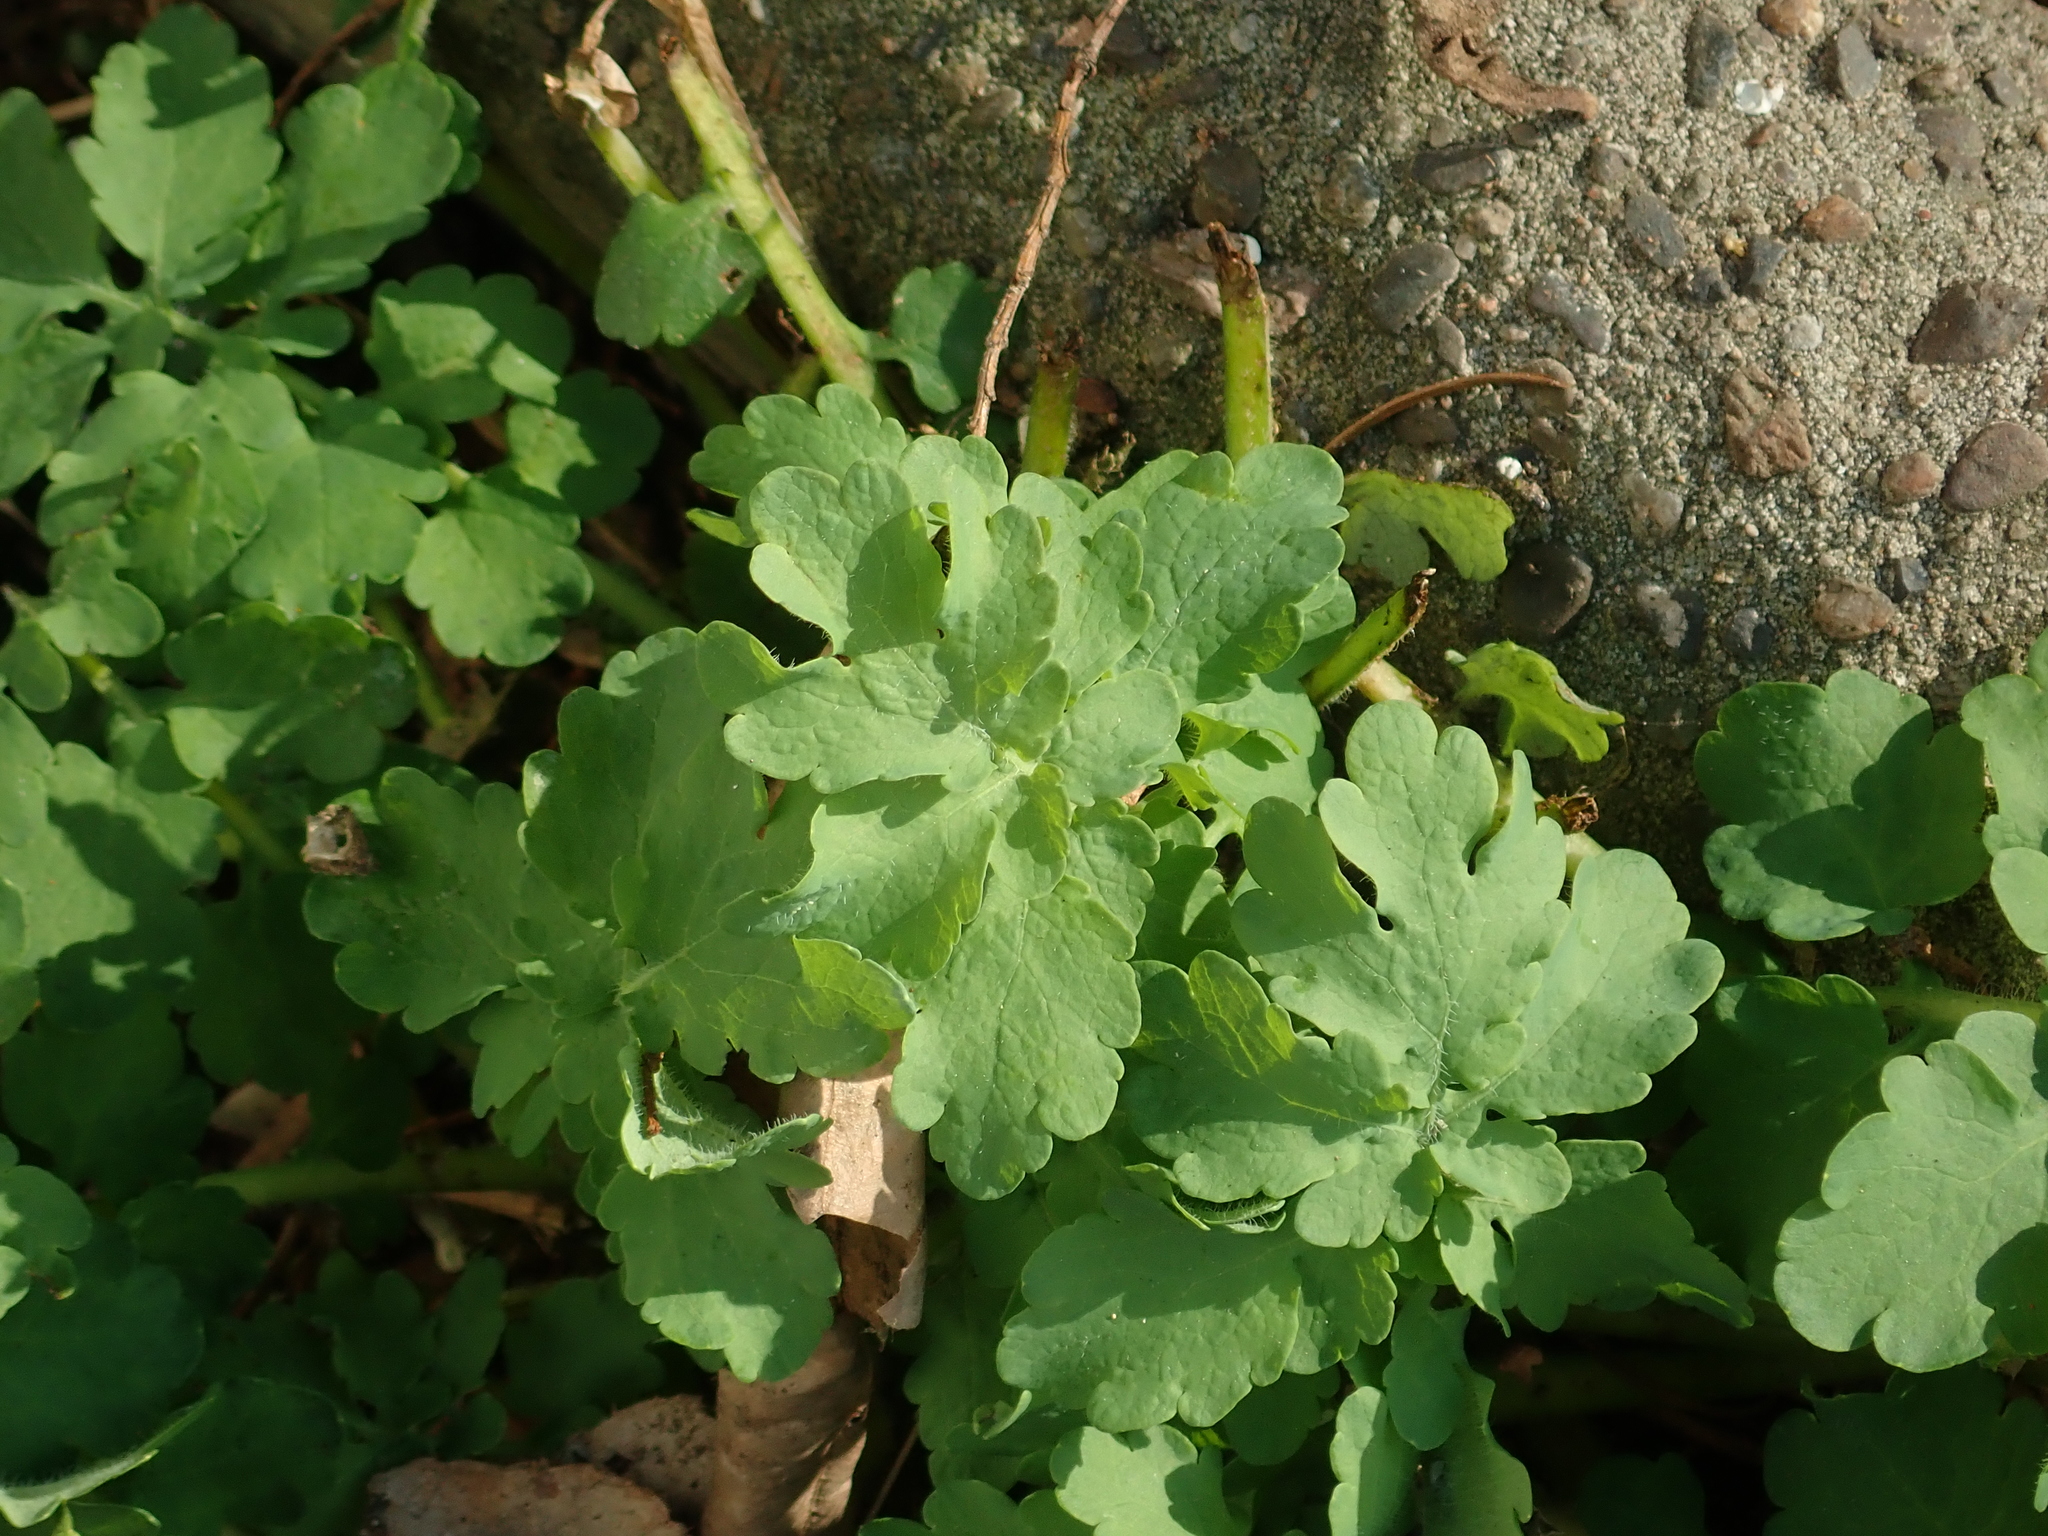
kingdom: Plantae
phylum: Tracheophyta
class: Magnoliopsida
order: Ranunculales
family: Papaveraceae
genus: Chelidonium
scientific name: Chelidonium majus
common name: Greater celandine
